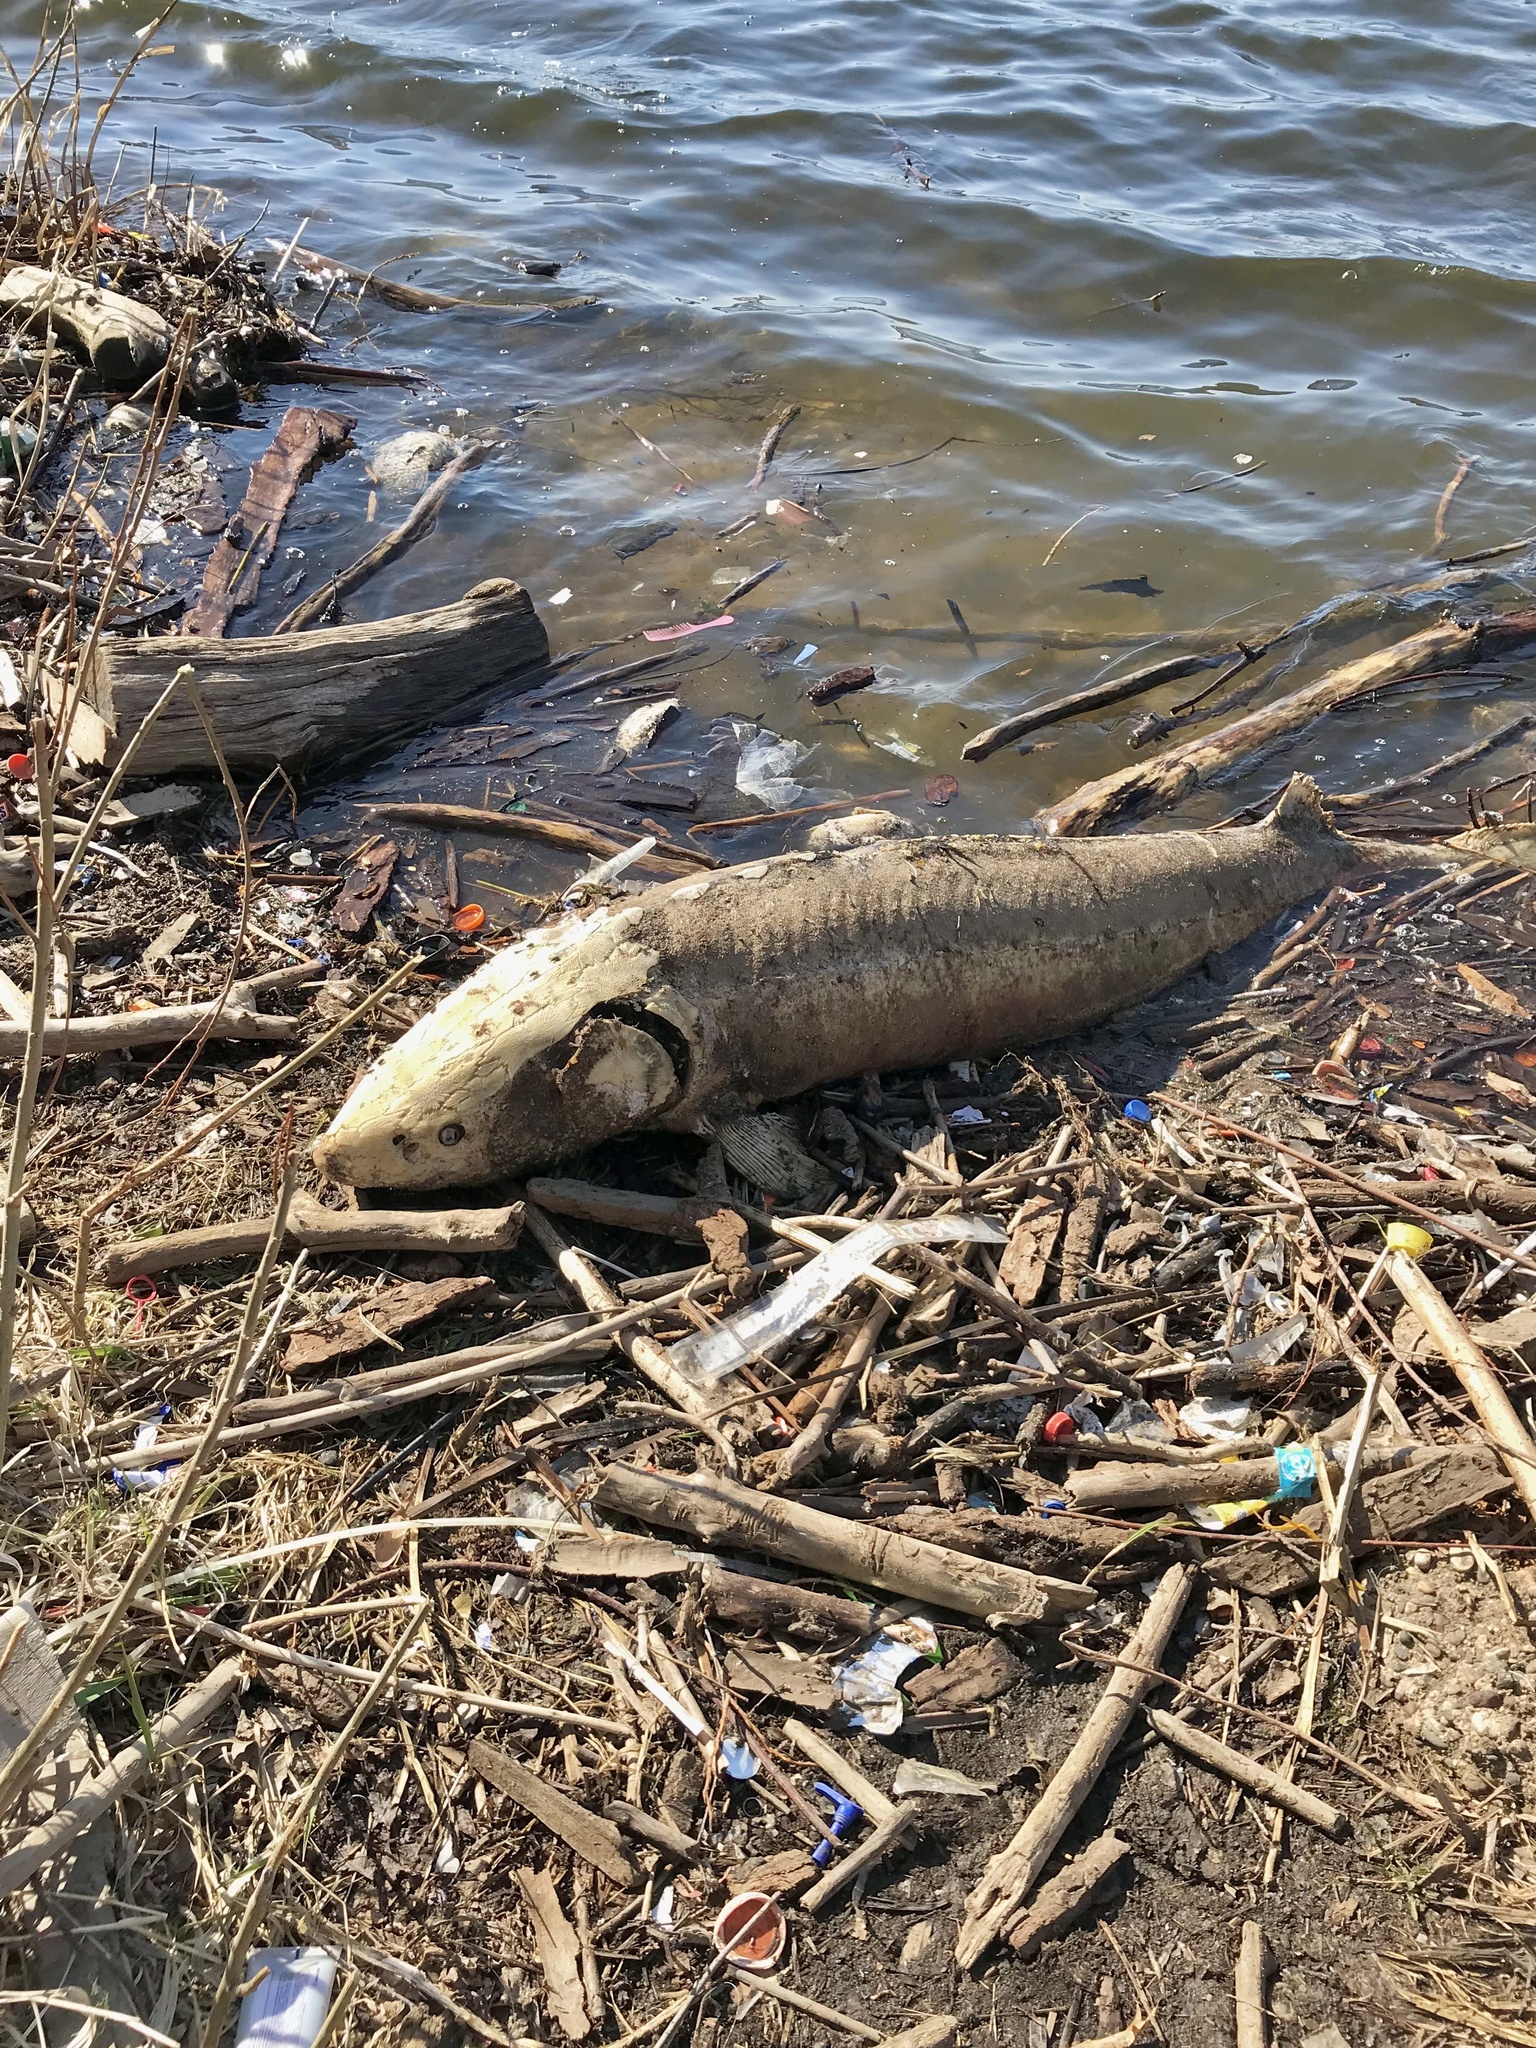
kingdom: Animalia
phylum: Chordata
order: Acipenseriformes
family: Acipenseridae
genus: Acipenser
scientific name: Acipenser fulvescens
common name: Lake sturgeon
